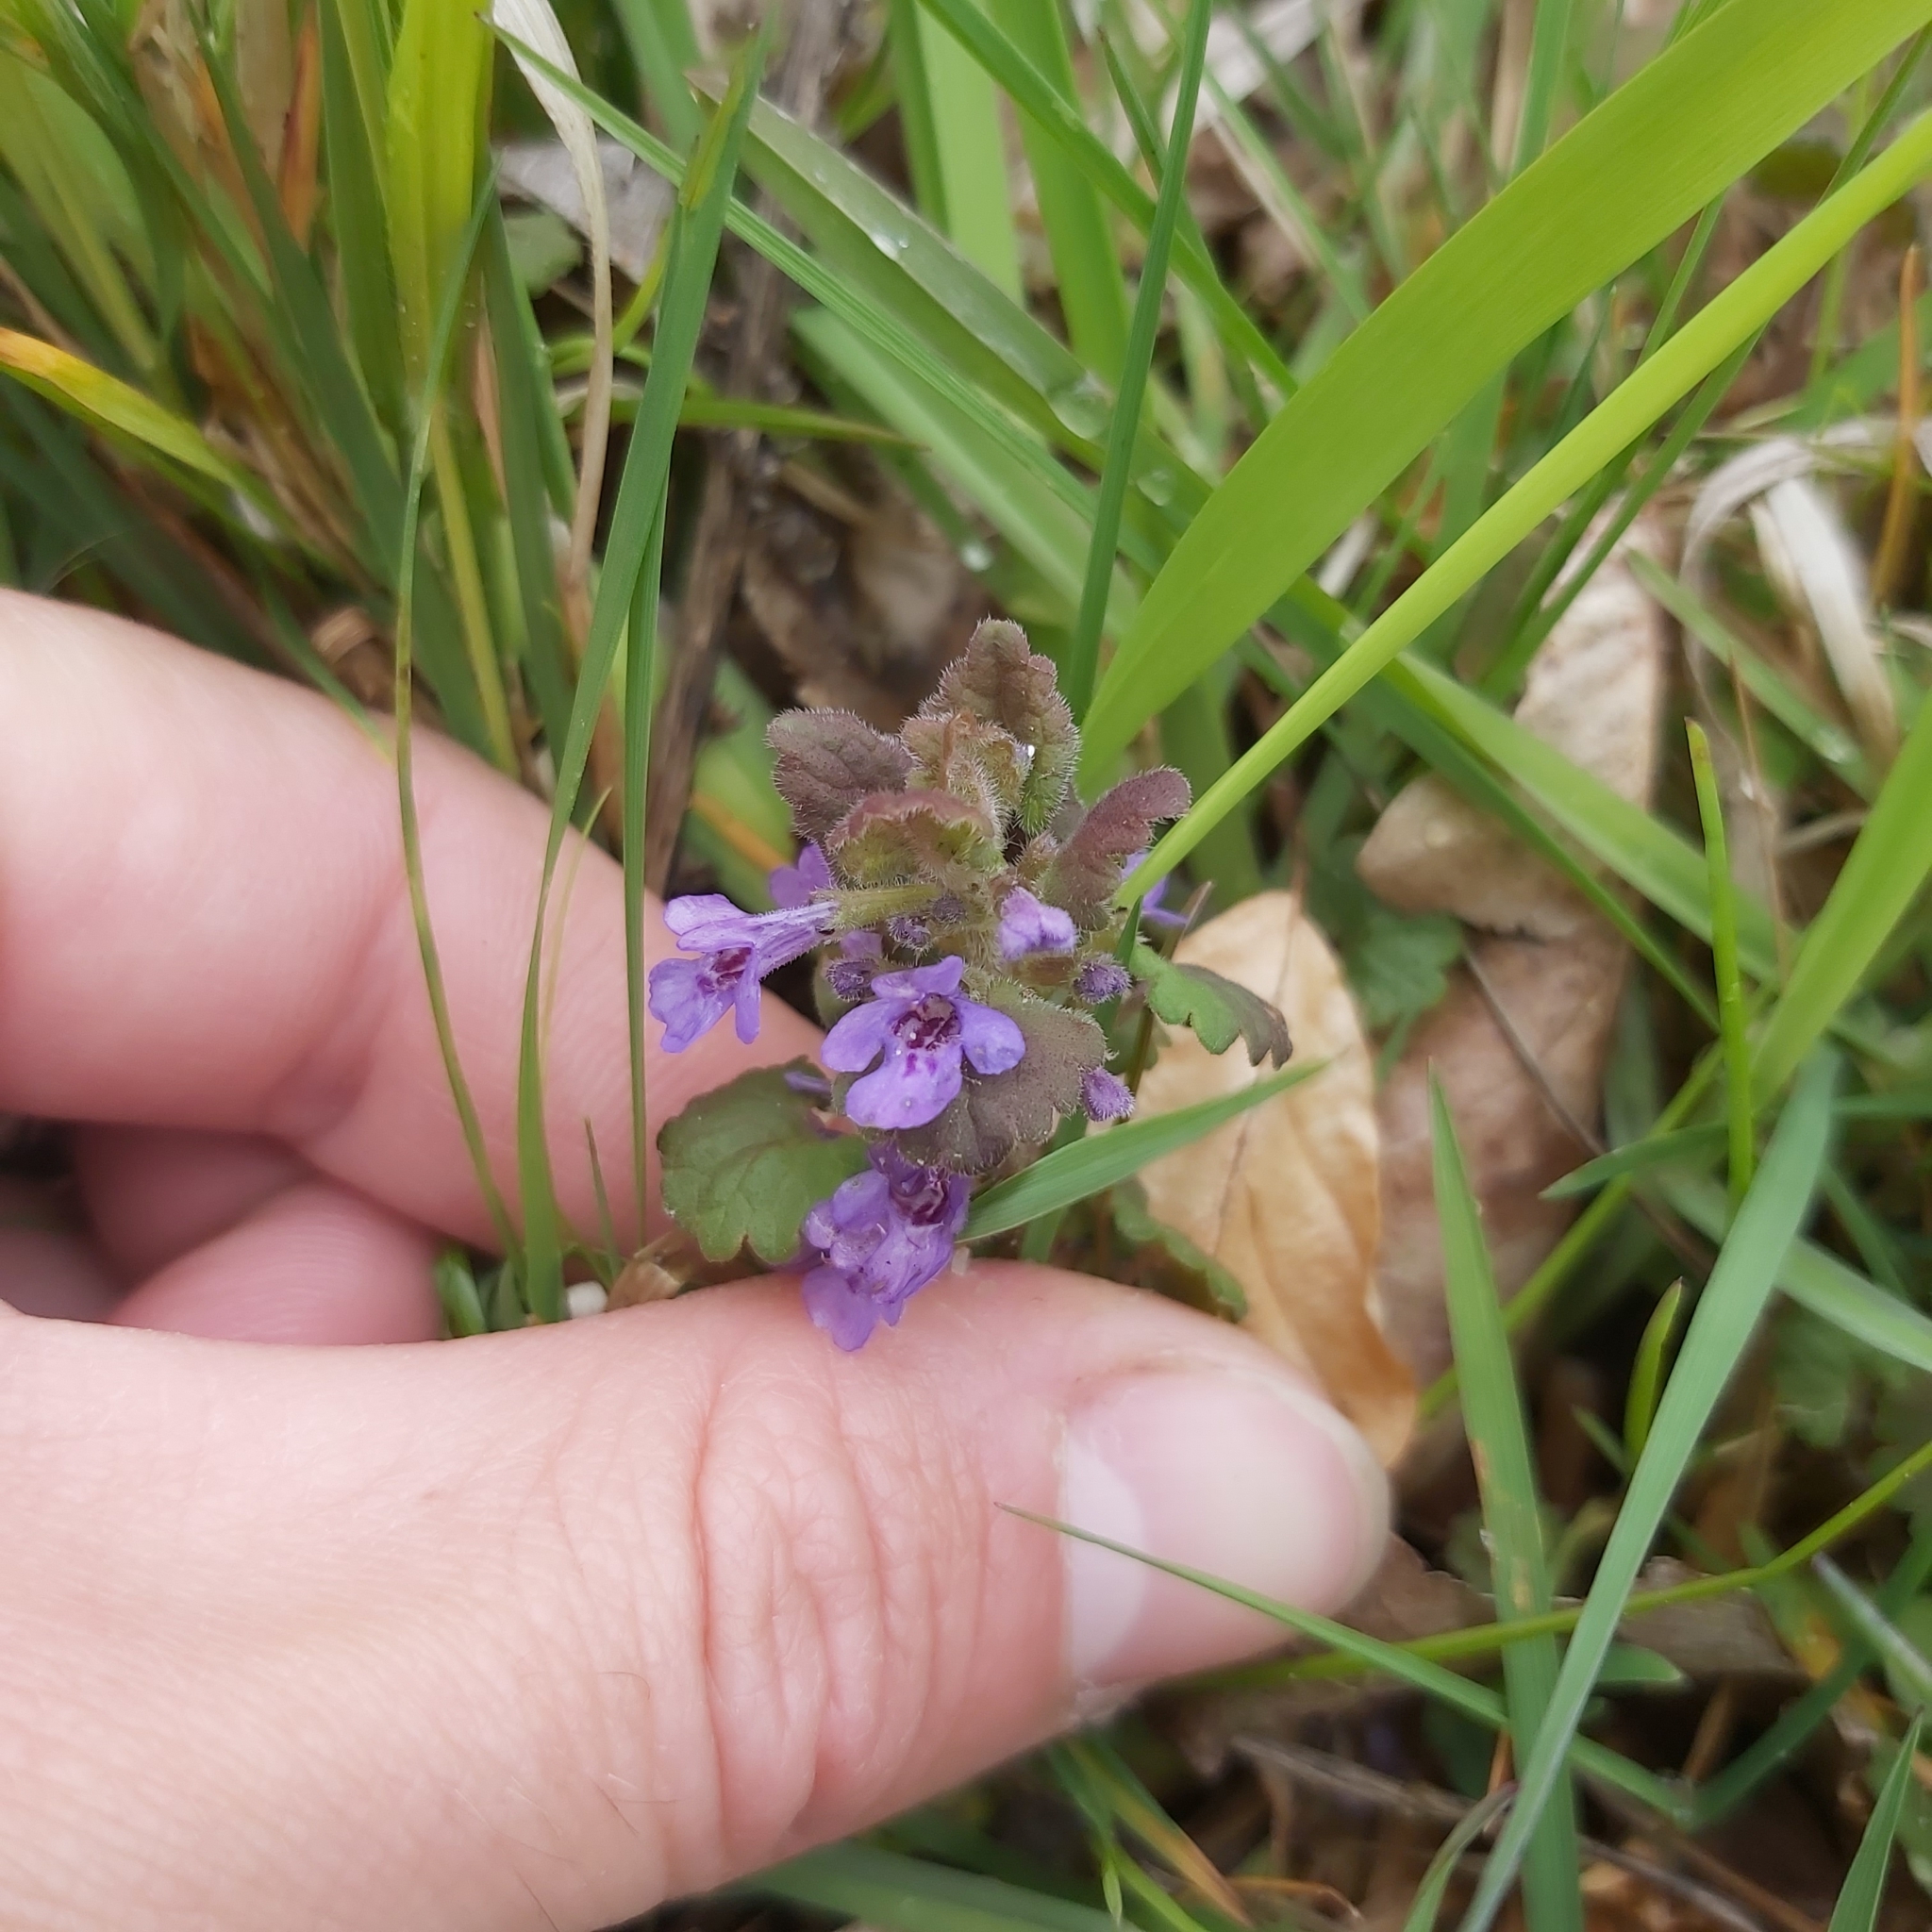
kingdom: Plantae
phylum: Tracheophyta
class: Magnoliopsida
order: Lamiales
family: Lamiaceae
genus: Glechoma
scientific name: Glechoma hederacea
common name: Ground ivy
